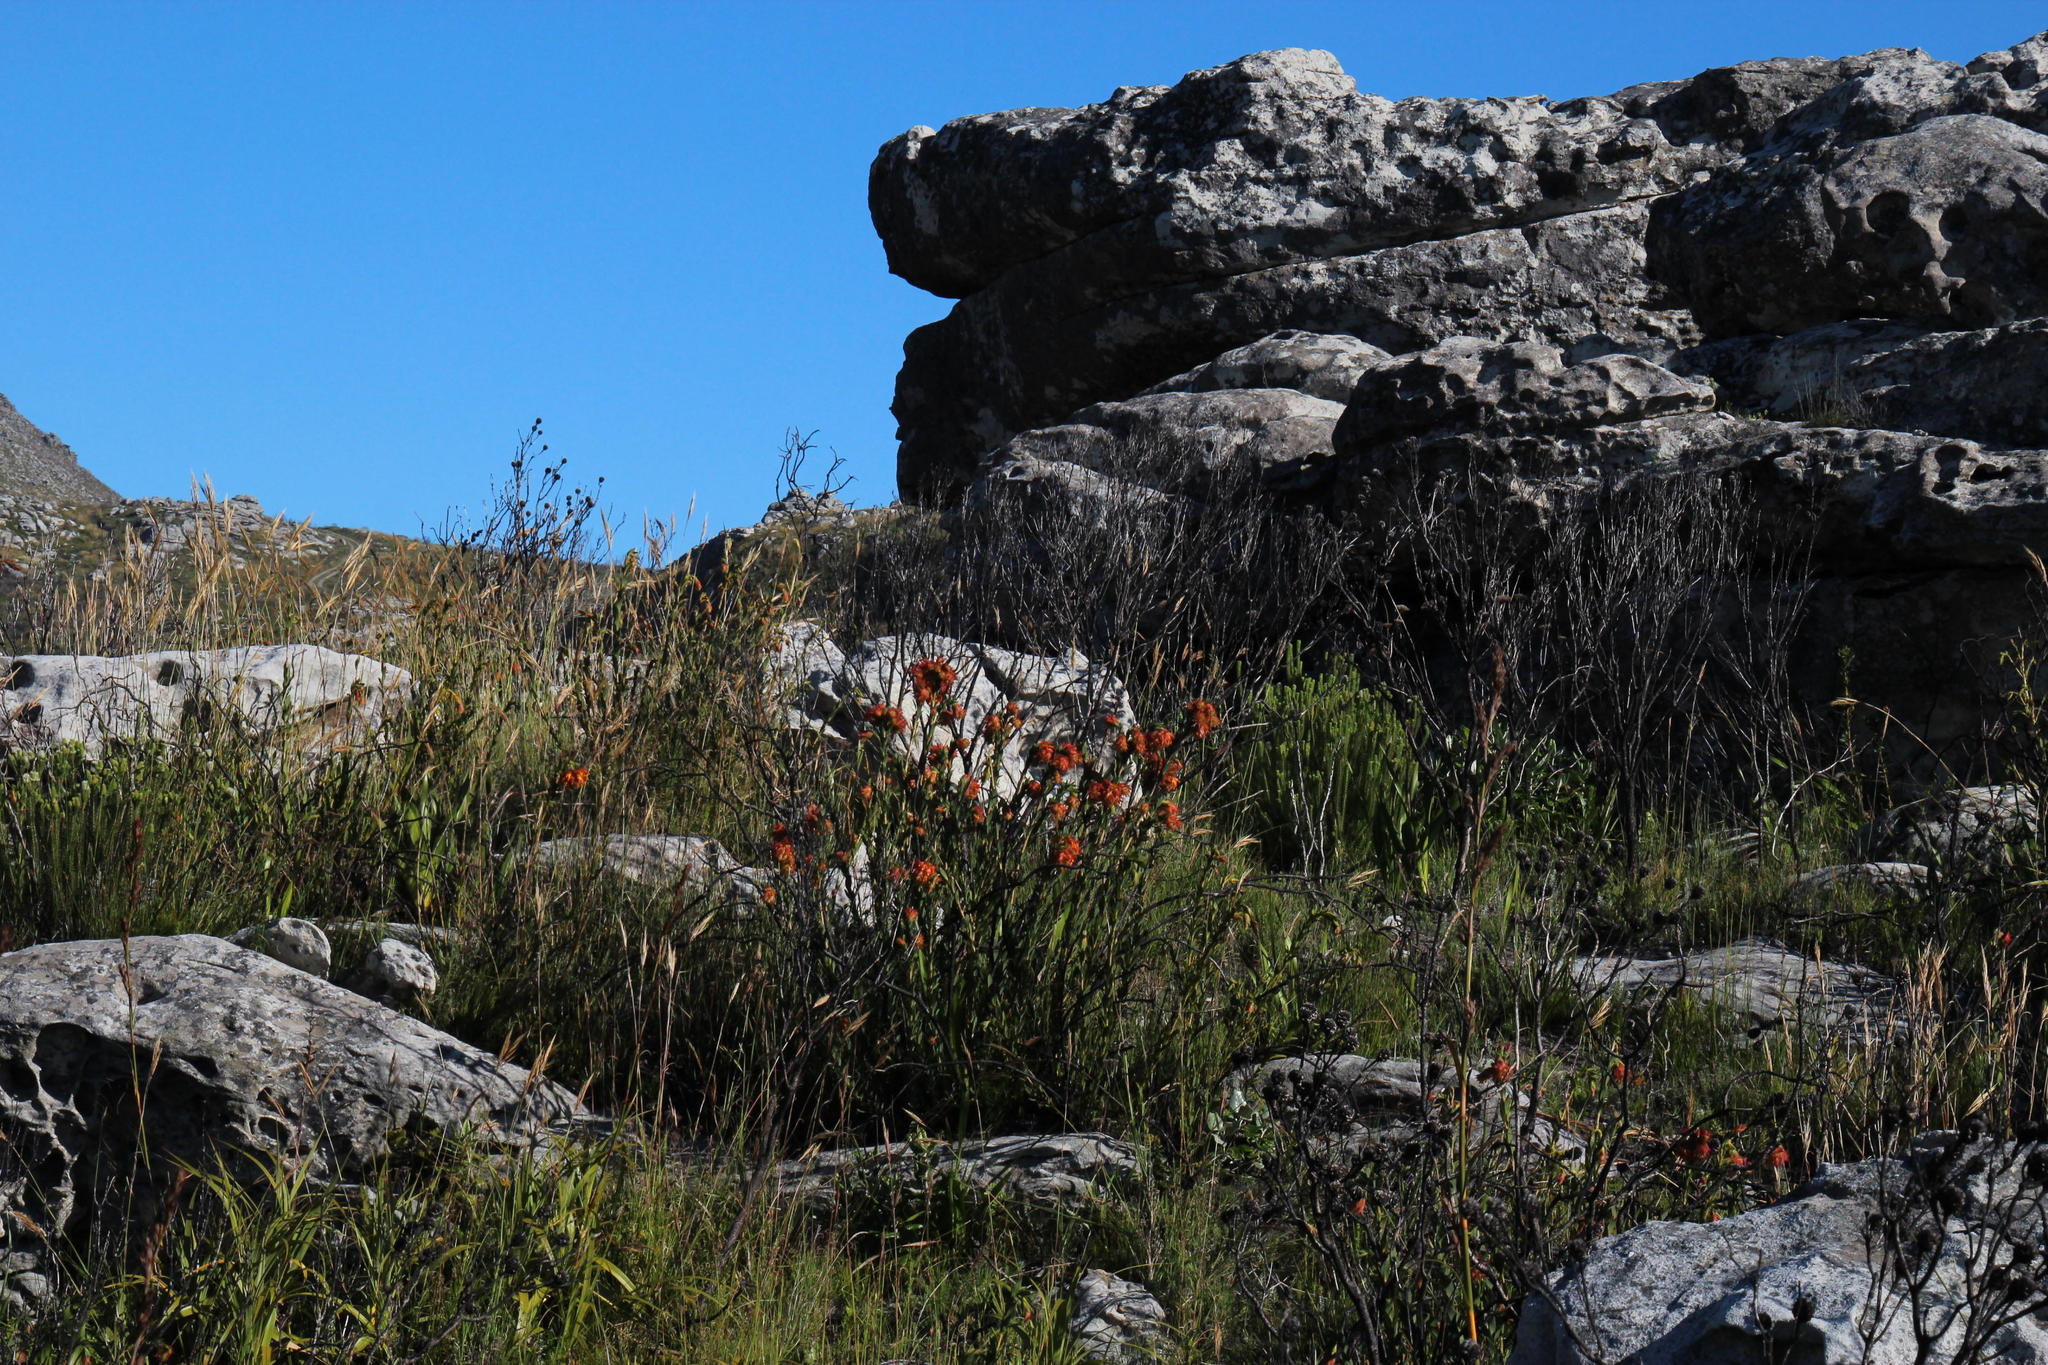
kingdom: Plantae
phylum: Tracheophyta
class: Magnoliopsida
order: Fabales
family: Fabaceae
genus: Liparia
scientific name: Liparia splendens
